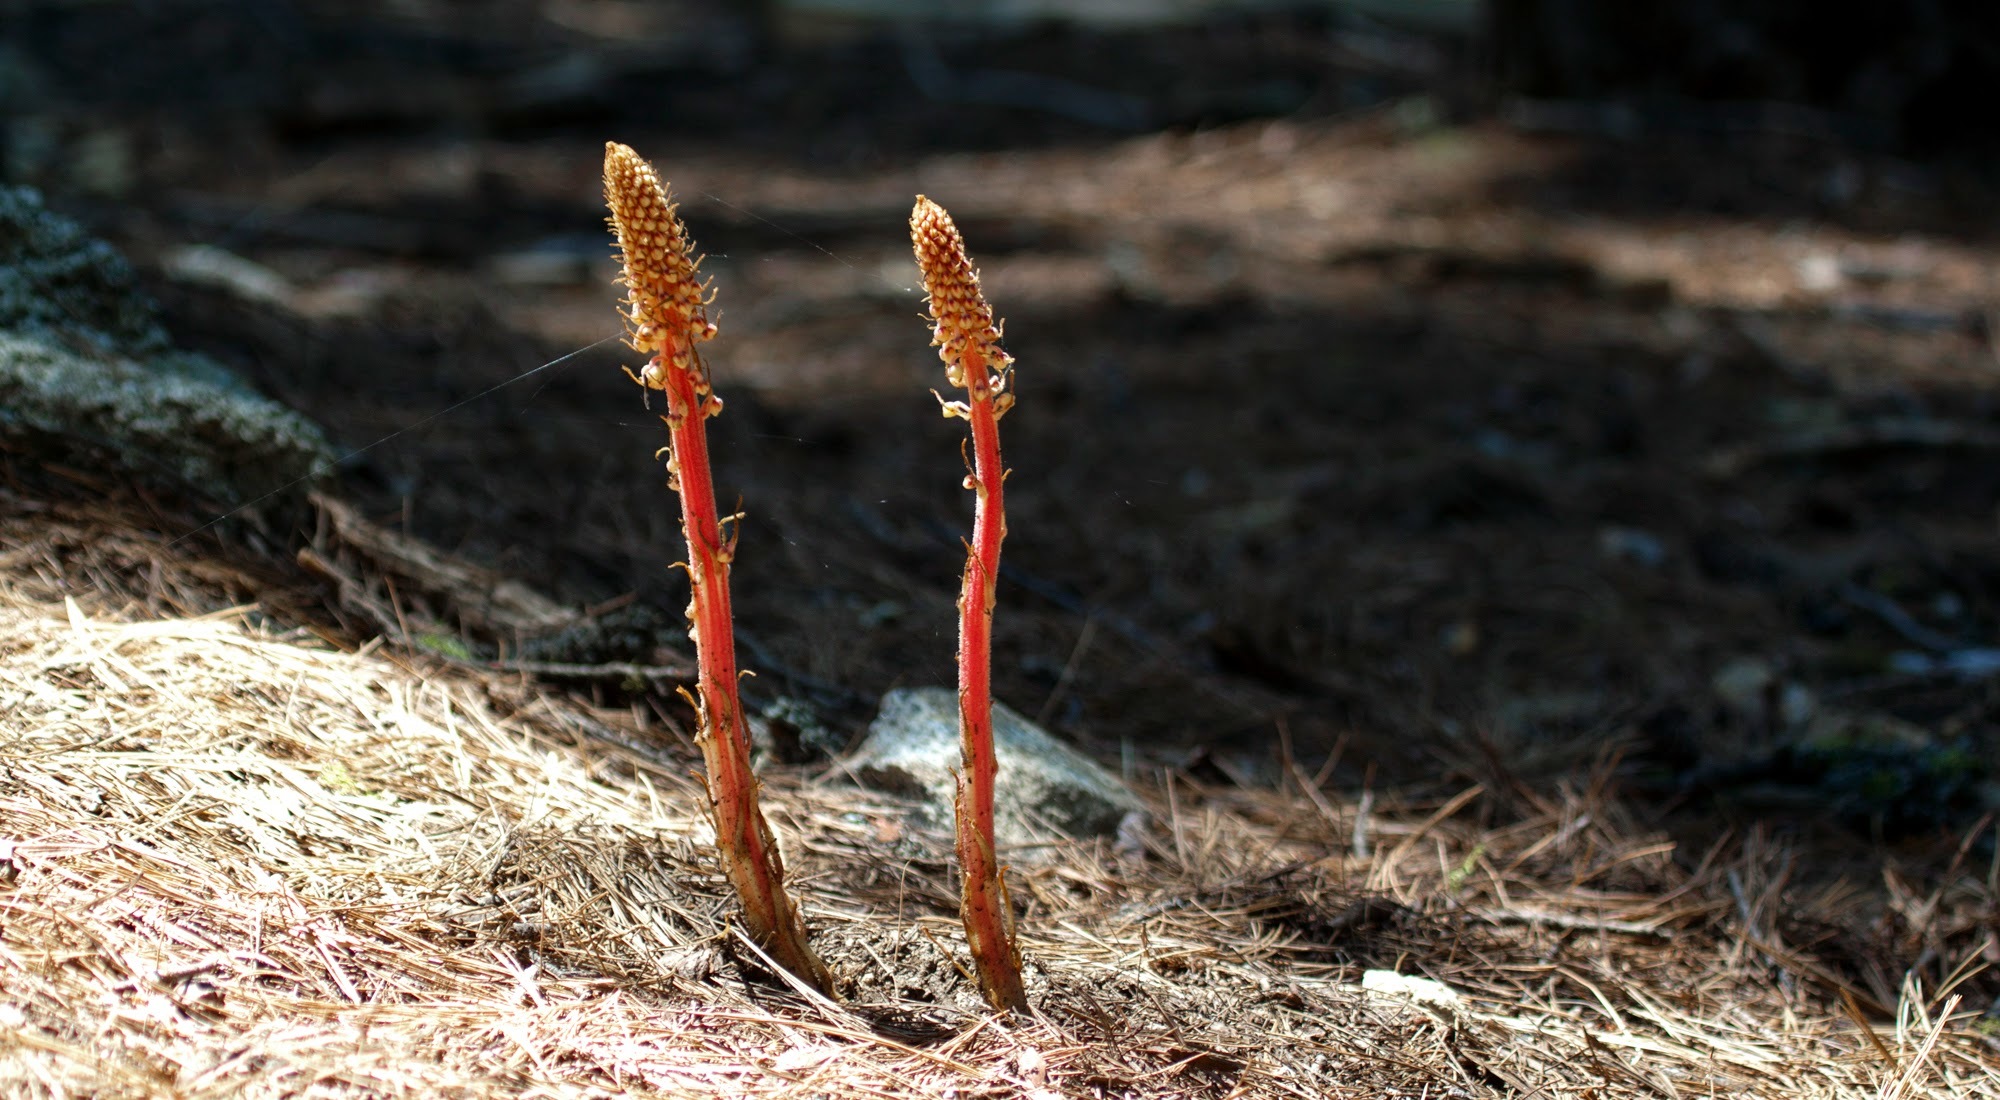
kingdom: Plantae
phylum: Tracheophyta
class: Magnoliopsida
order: Ericales
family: Ericaceae
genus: Pterospora
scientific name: Pterospora andromedea
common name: Giant bird's-nest
